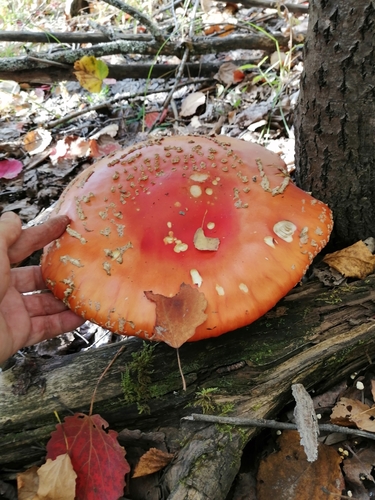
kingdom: Fungi
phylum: Basidiomycota
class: Agaricomycetes
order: Agaricales
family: Amanitaceae
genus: Amanita
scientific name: Amanita muscaria
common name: Fly agaric
